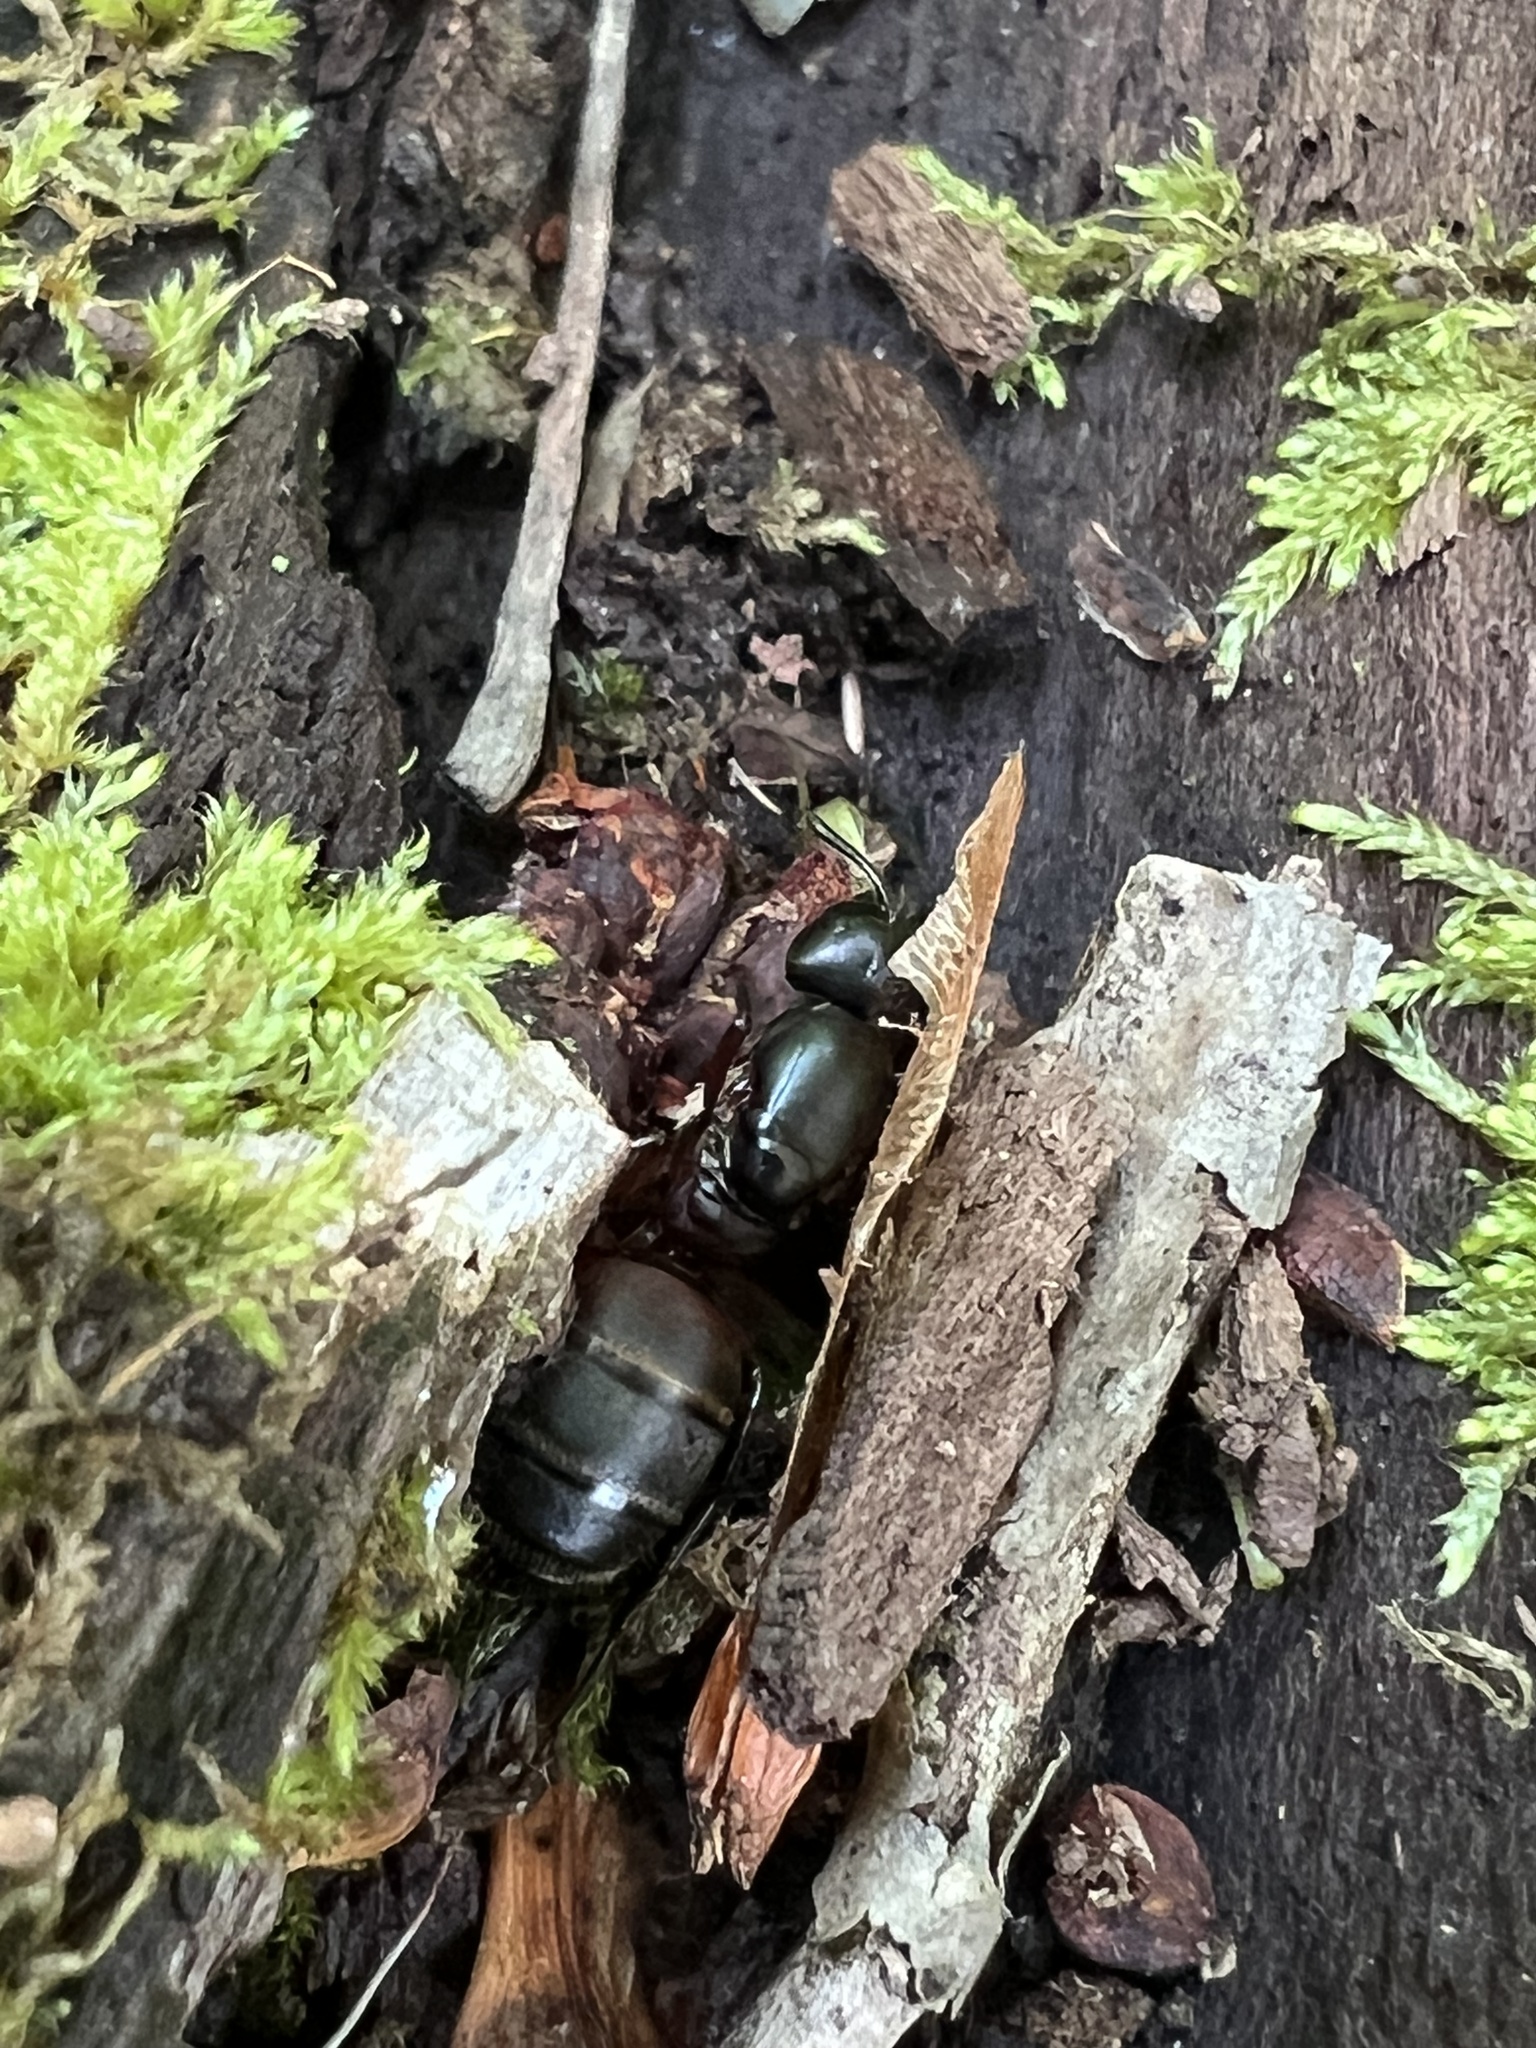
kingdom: Animalia
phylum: Arthropoda
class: Insecta
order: Hymenoptera
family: Formicidae
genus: Camponotus
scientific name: Camponotus chromaiodes
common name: Red carpenter ant
